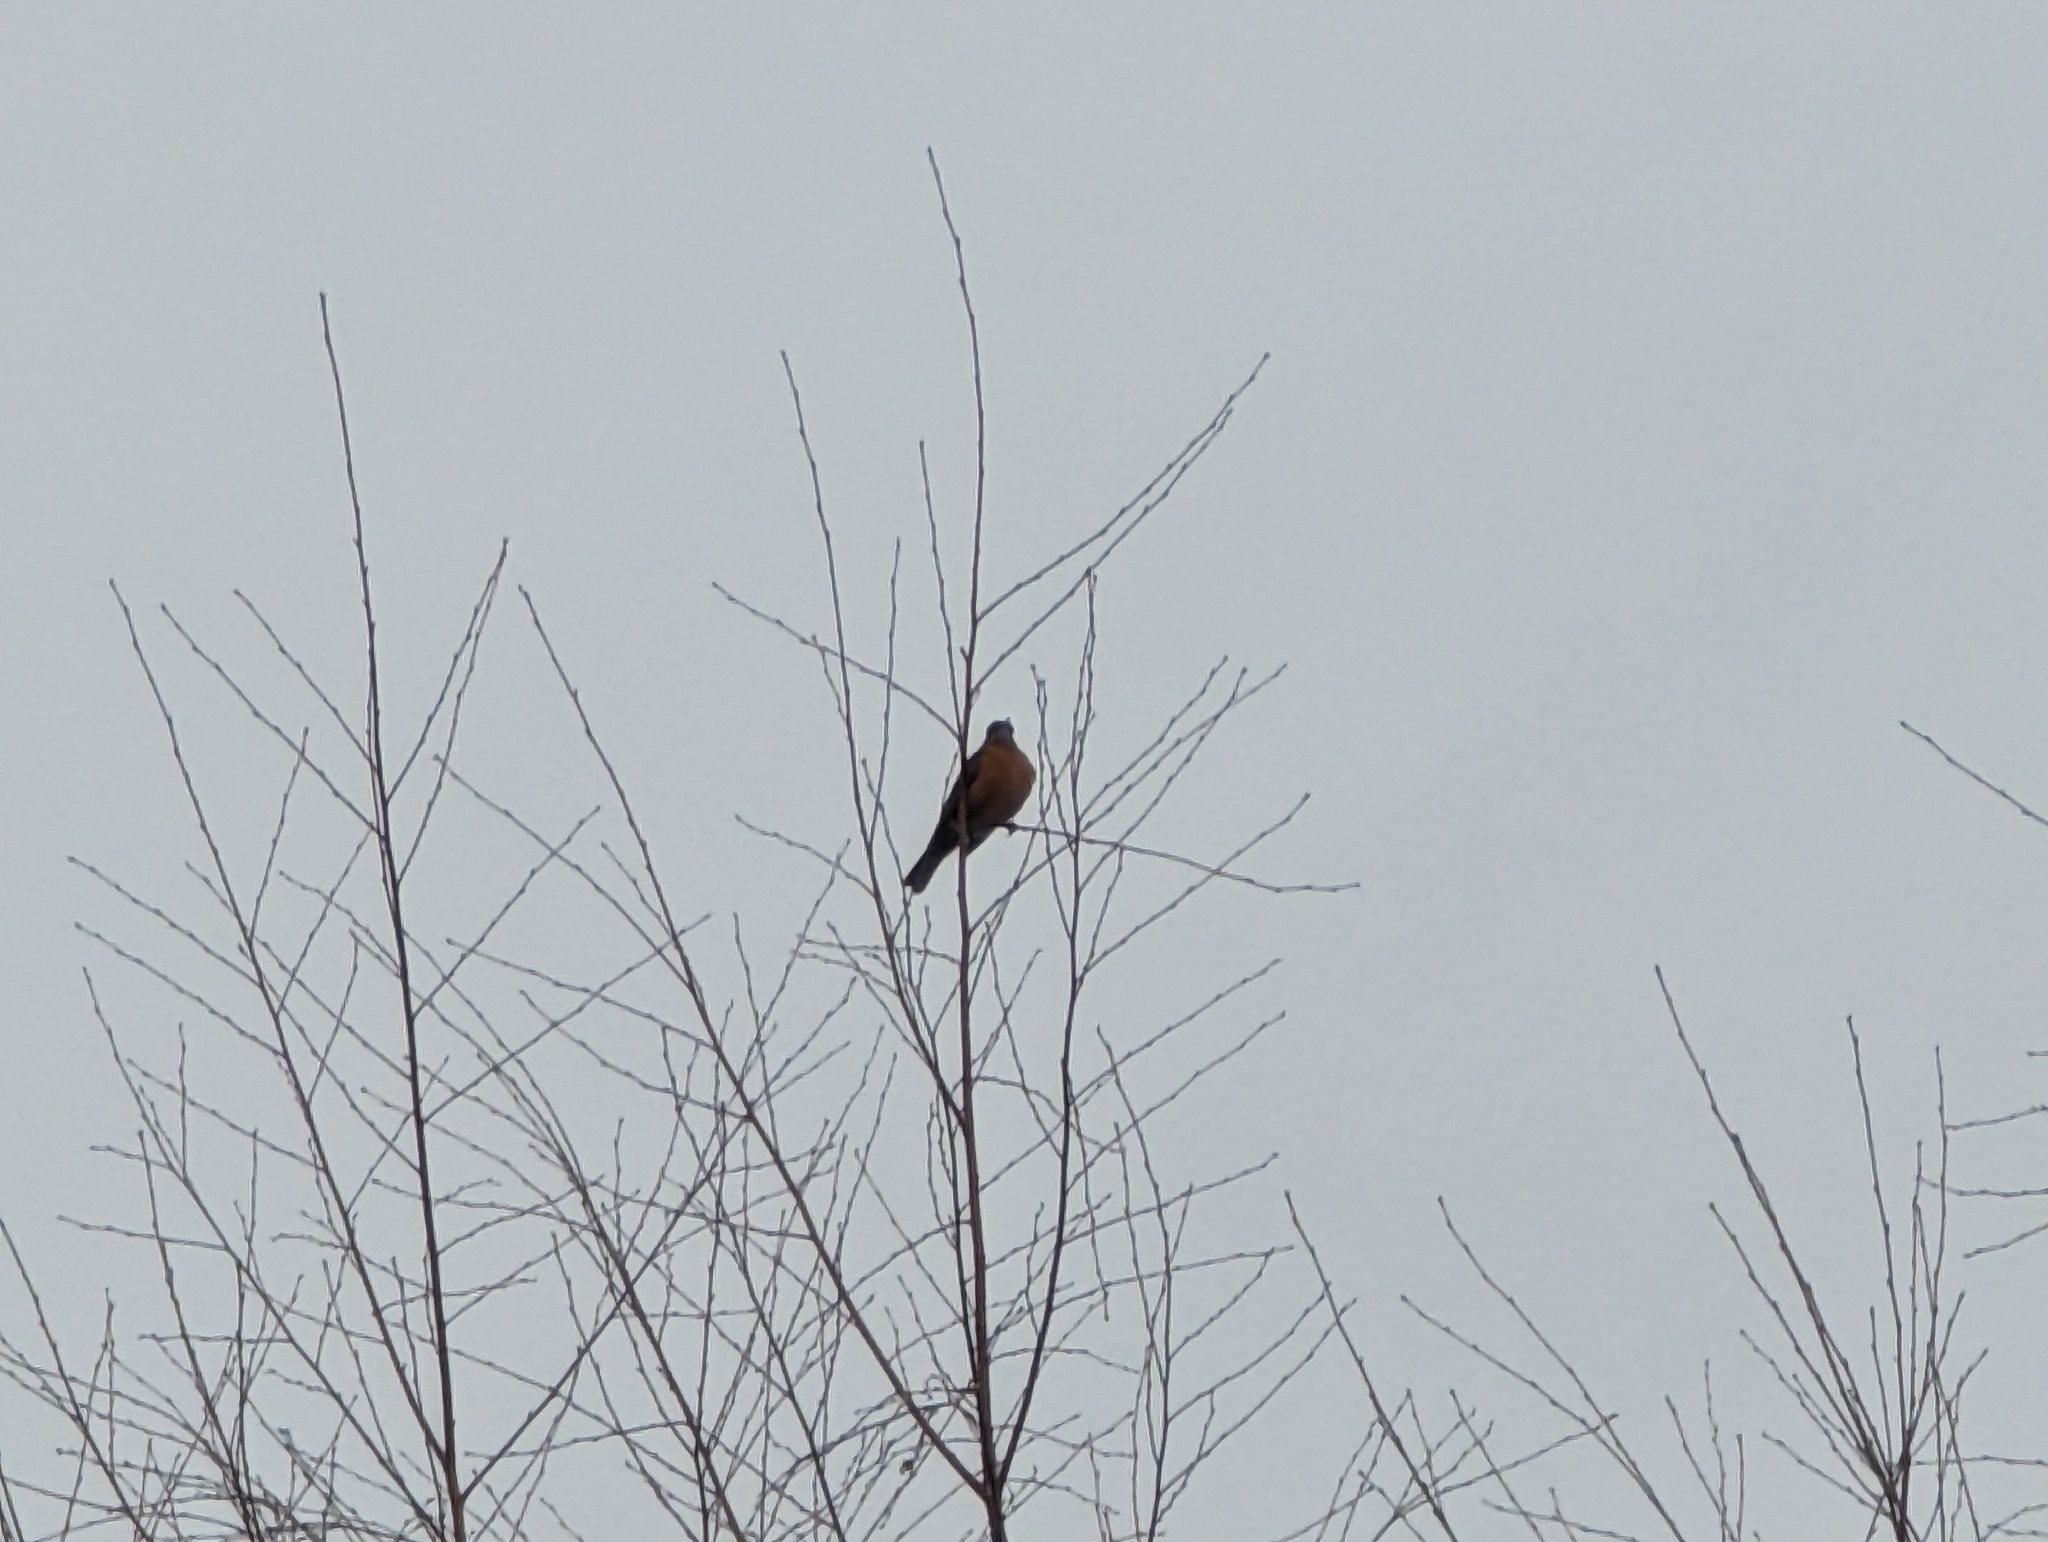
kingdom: Animalia
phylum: Chordata
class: Aves
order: Passeriformes
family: Turdidae
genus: Turdus
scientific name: Turdus migratorius
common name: American robin
